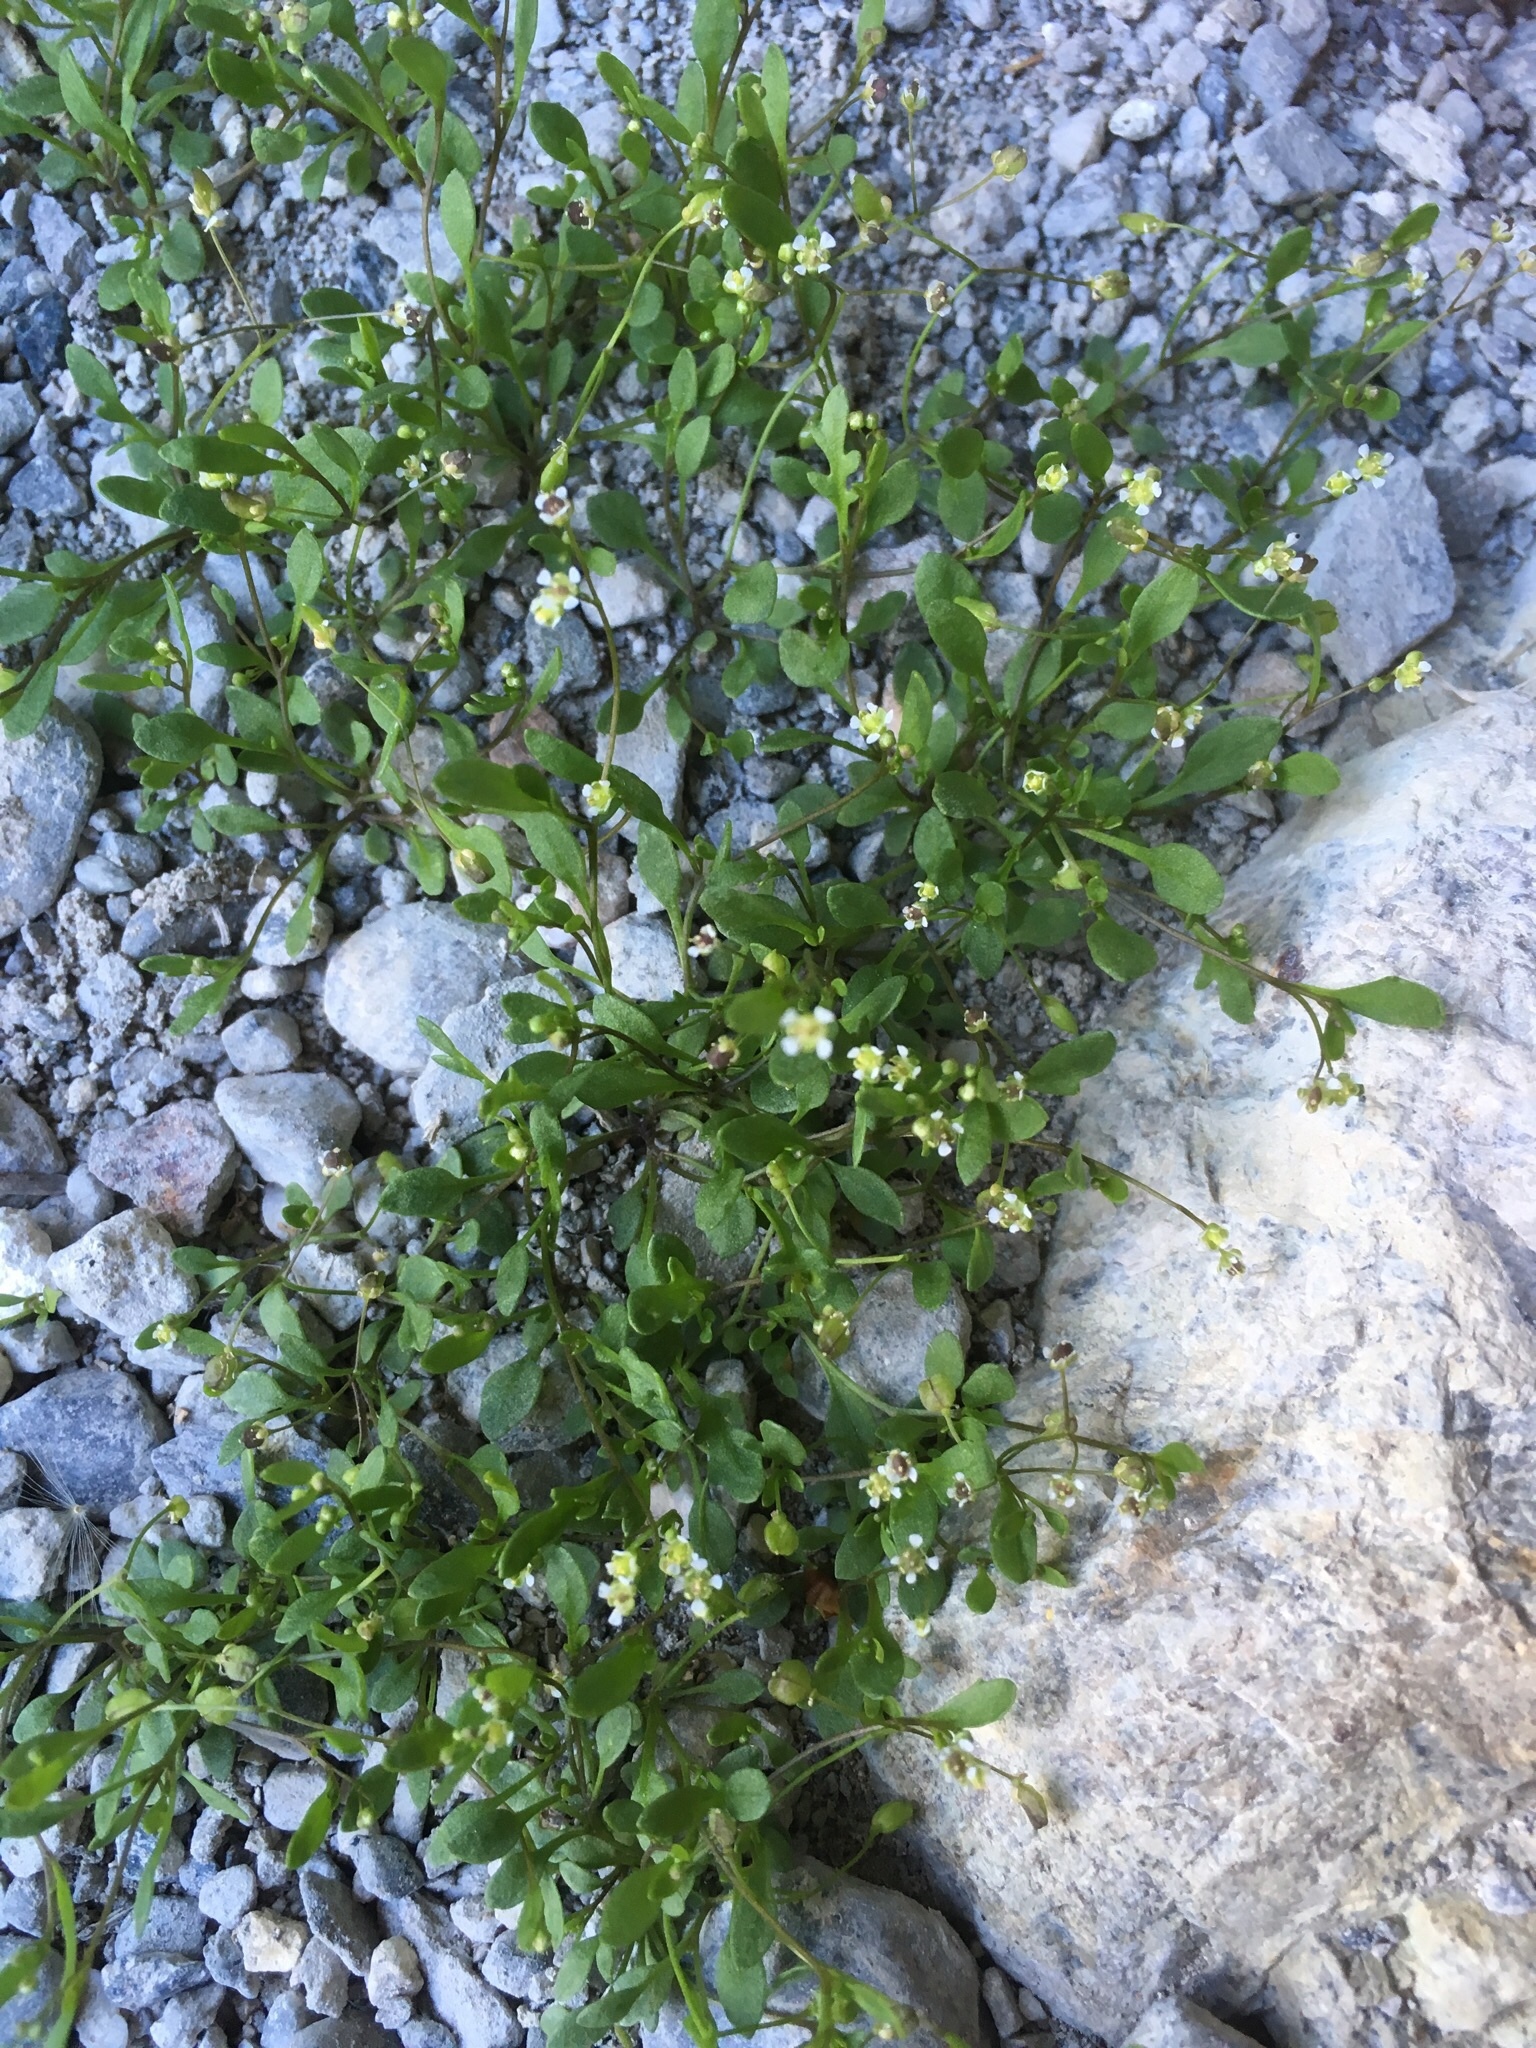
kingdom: Plantae
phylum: Tracheophyta
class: Magnoliopsida
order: Brassicales
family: Brassicaceae
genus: Hornungia
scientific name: Hornungia procumbens
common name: Oval purse
